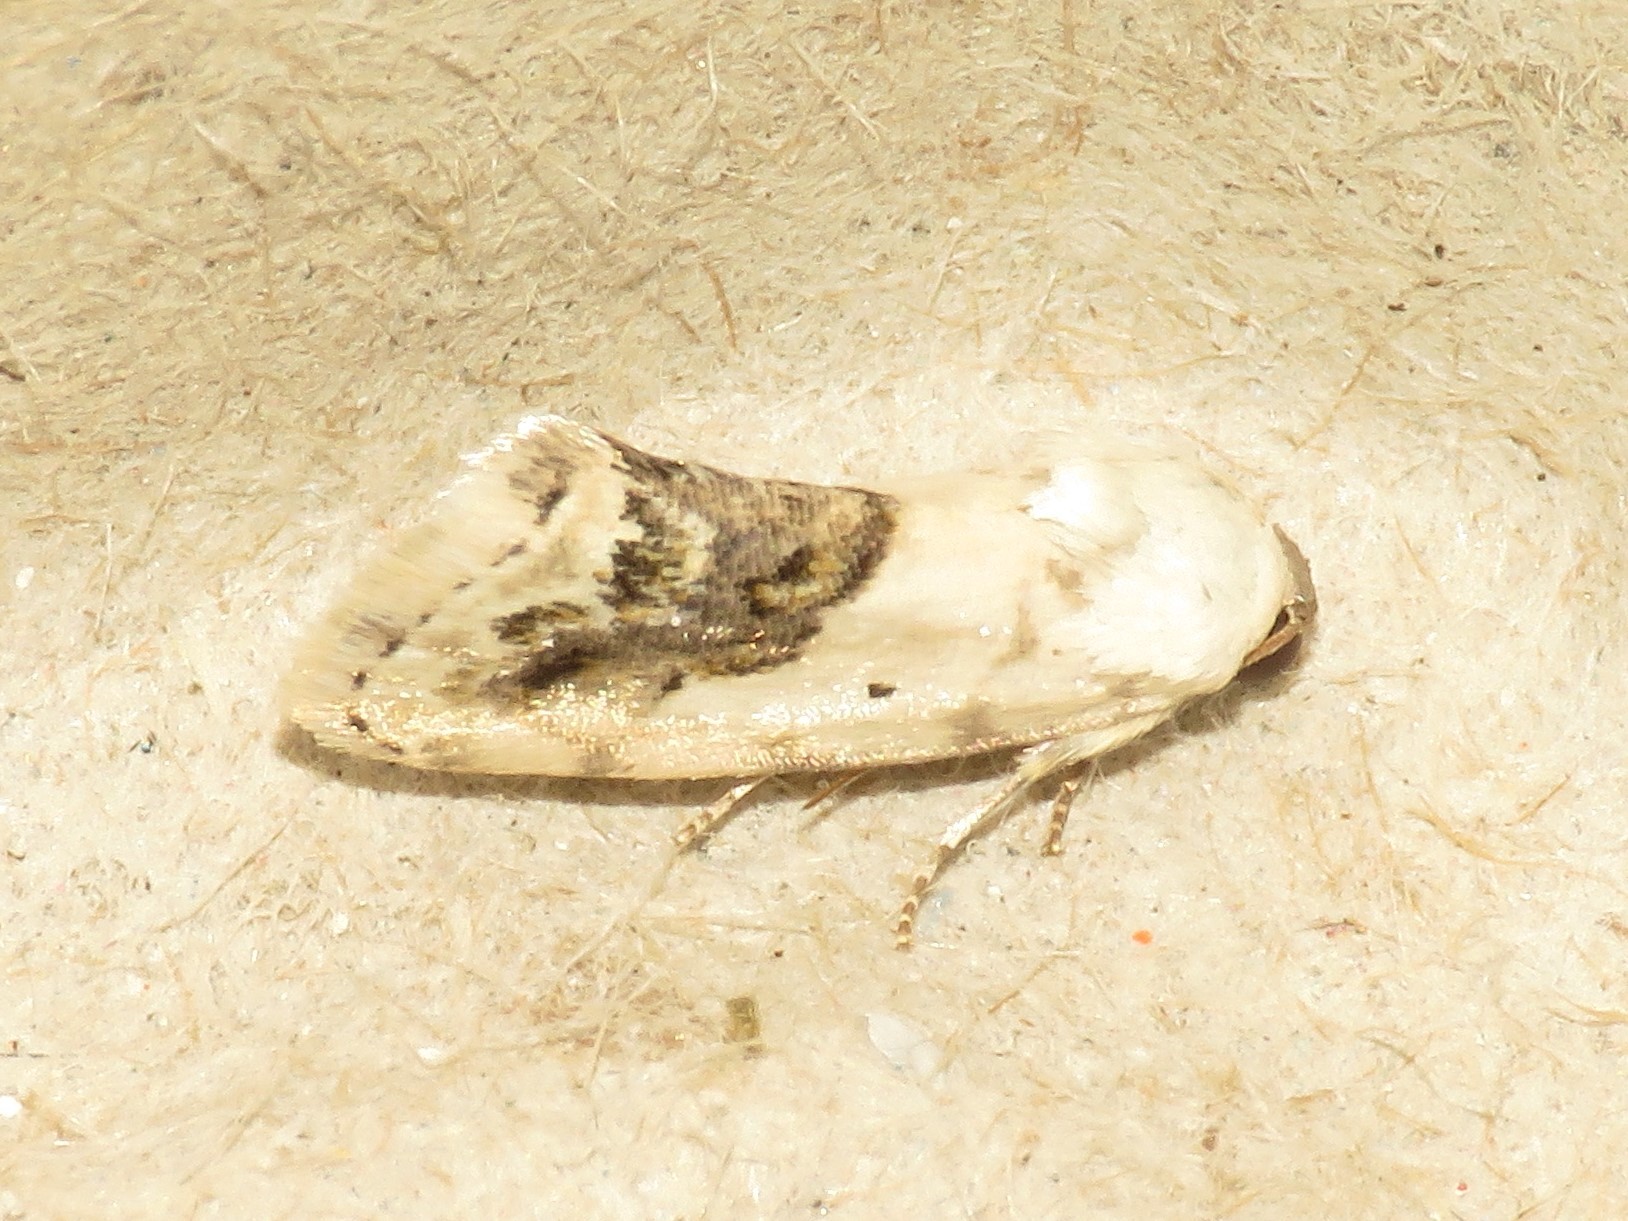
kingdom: Animalia
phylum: Arthropoda
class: Insecta
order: Lepidoptera
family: Noctuidae
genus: Acontia
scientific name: Acontia erastrioides
